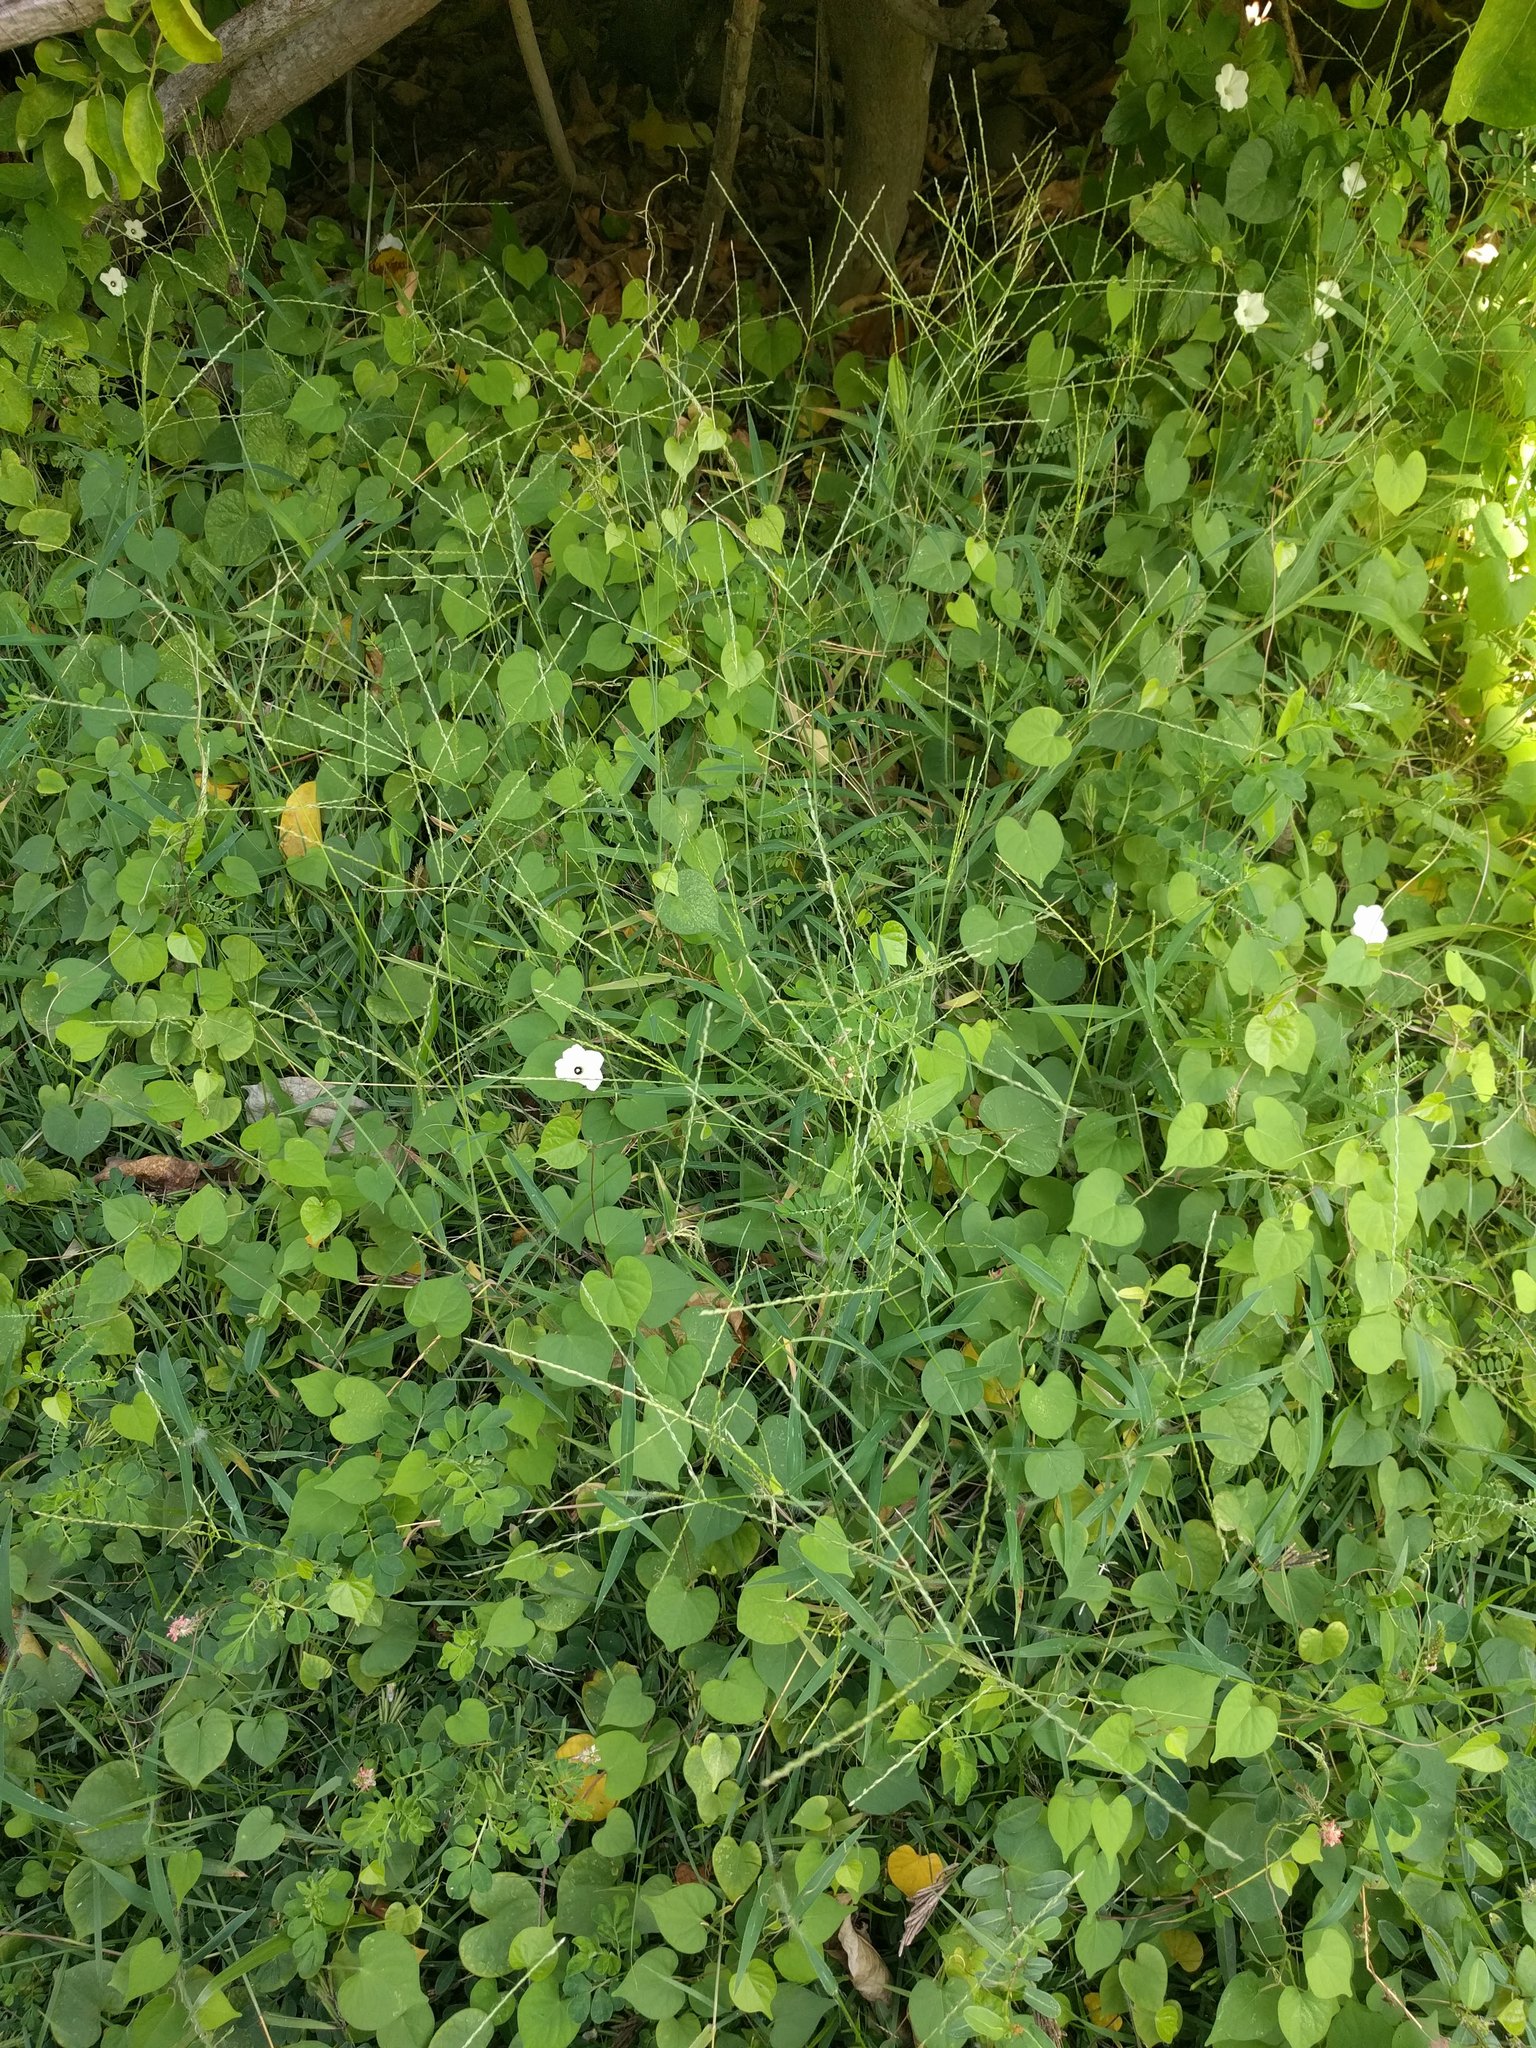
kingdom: Plantae
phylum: Tracheophyta
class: Magnoliopsida
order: Solanales
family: Convolvulaceae
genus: Ipomoea
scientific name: Ipomoea obscura
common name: Obscure morning-glory
